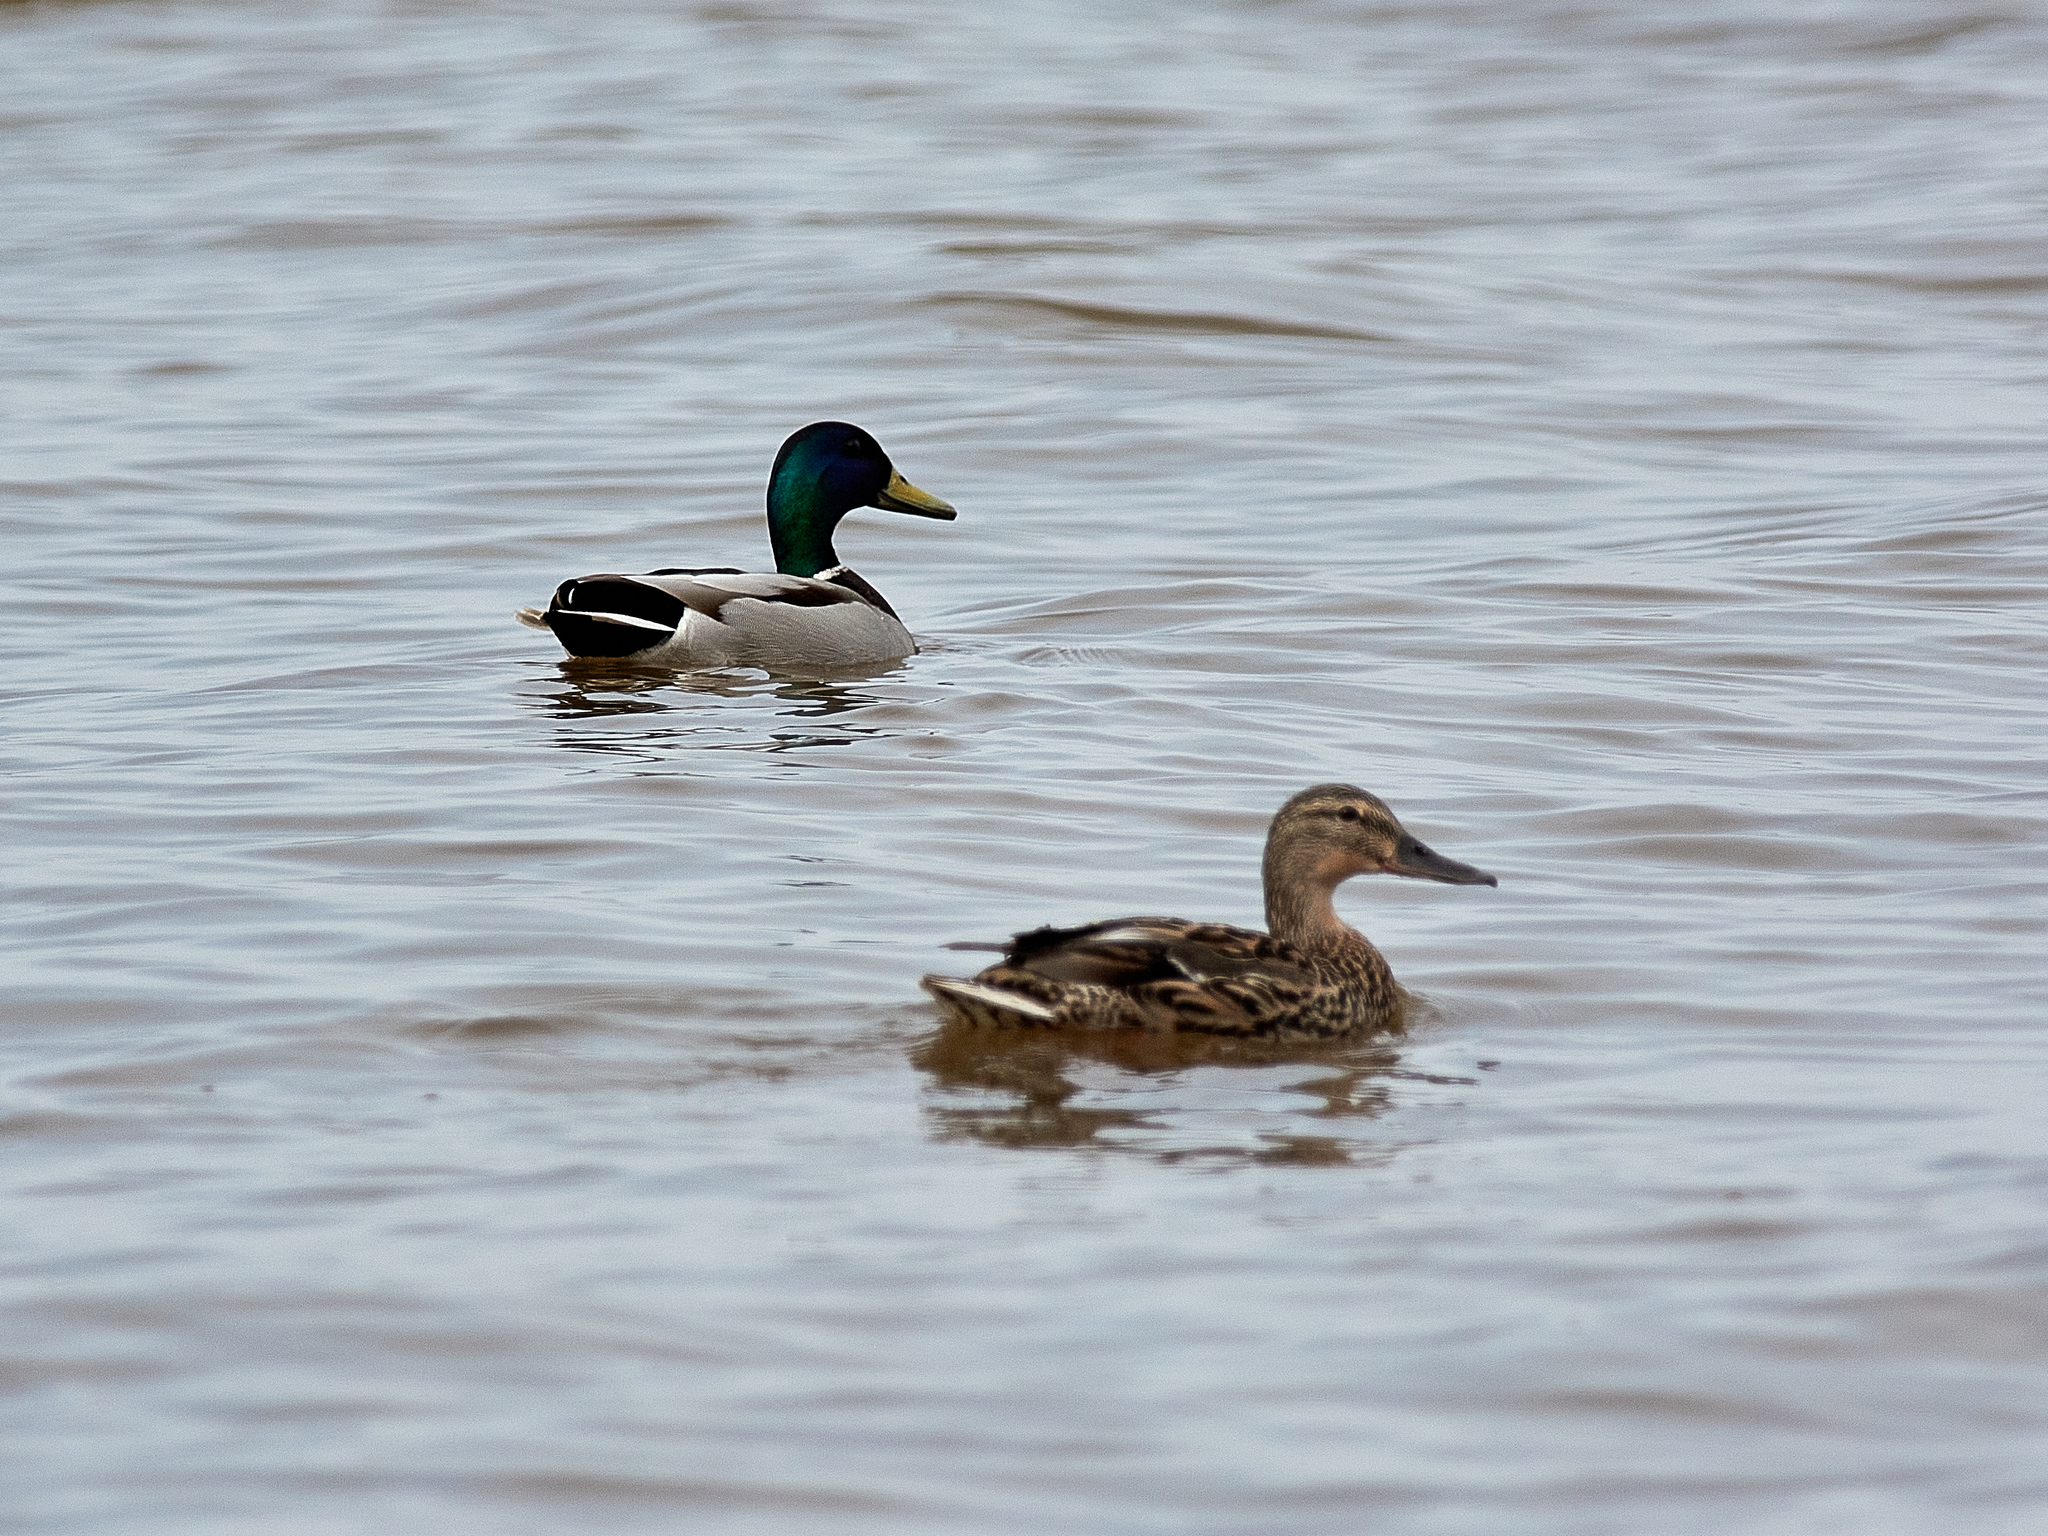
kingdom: Animalia
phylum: Chordata
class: Aves
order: Anseriformes
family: Anatidae
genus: Anas
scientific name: Anas platyrhynchos
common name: Mallard
